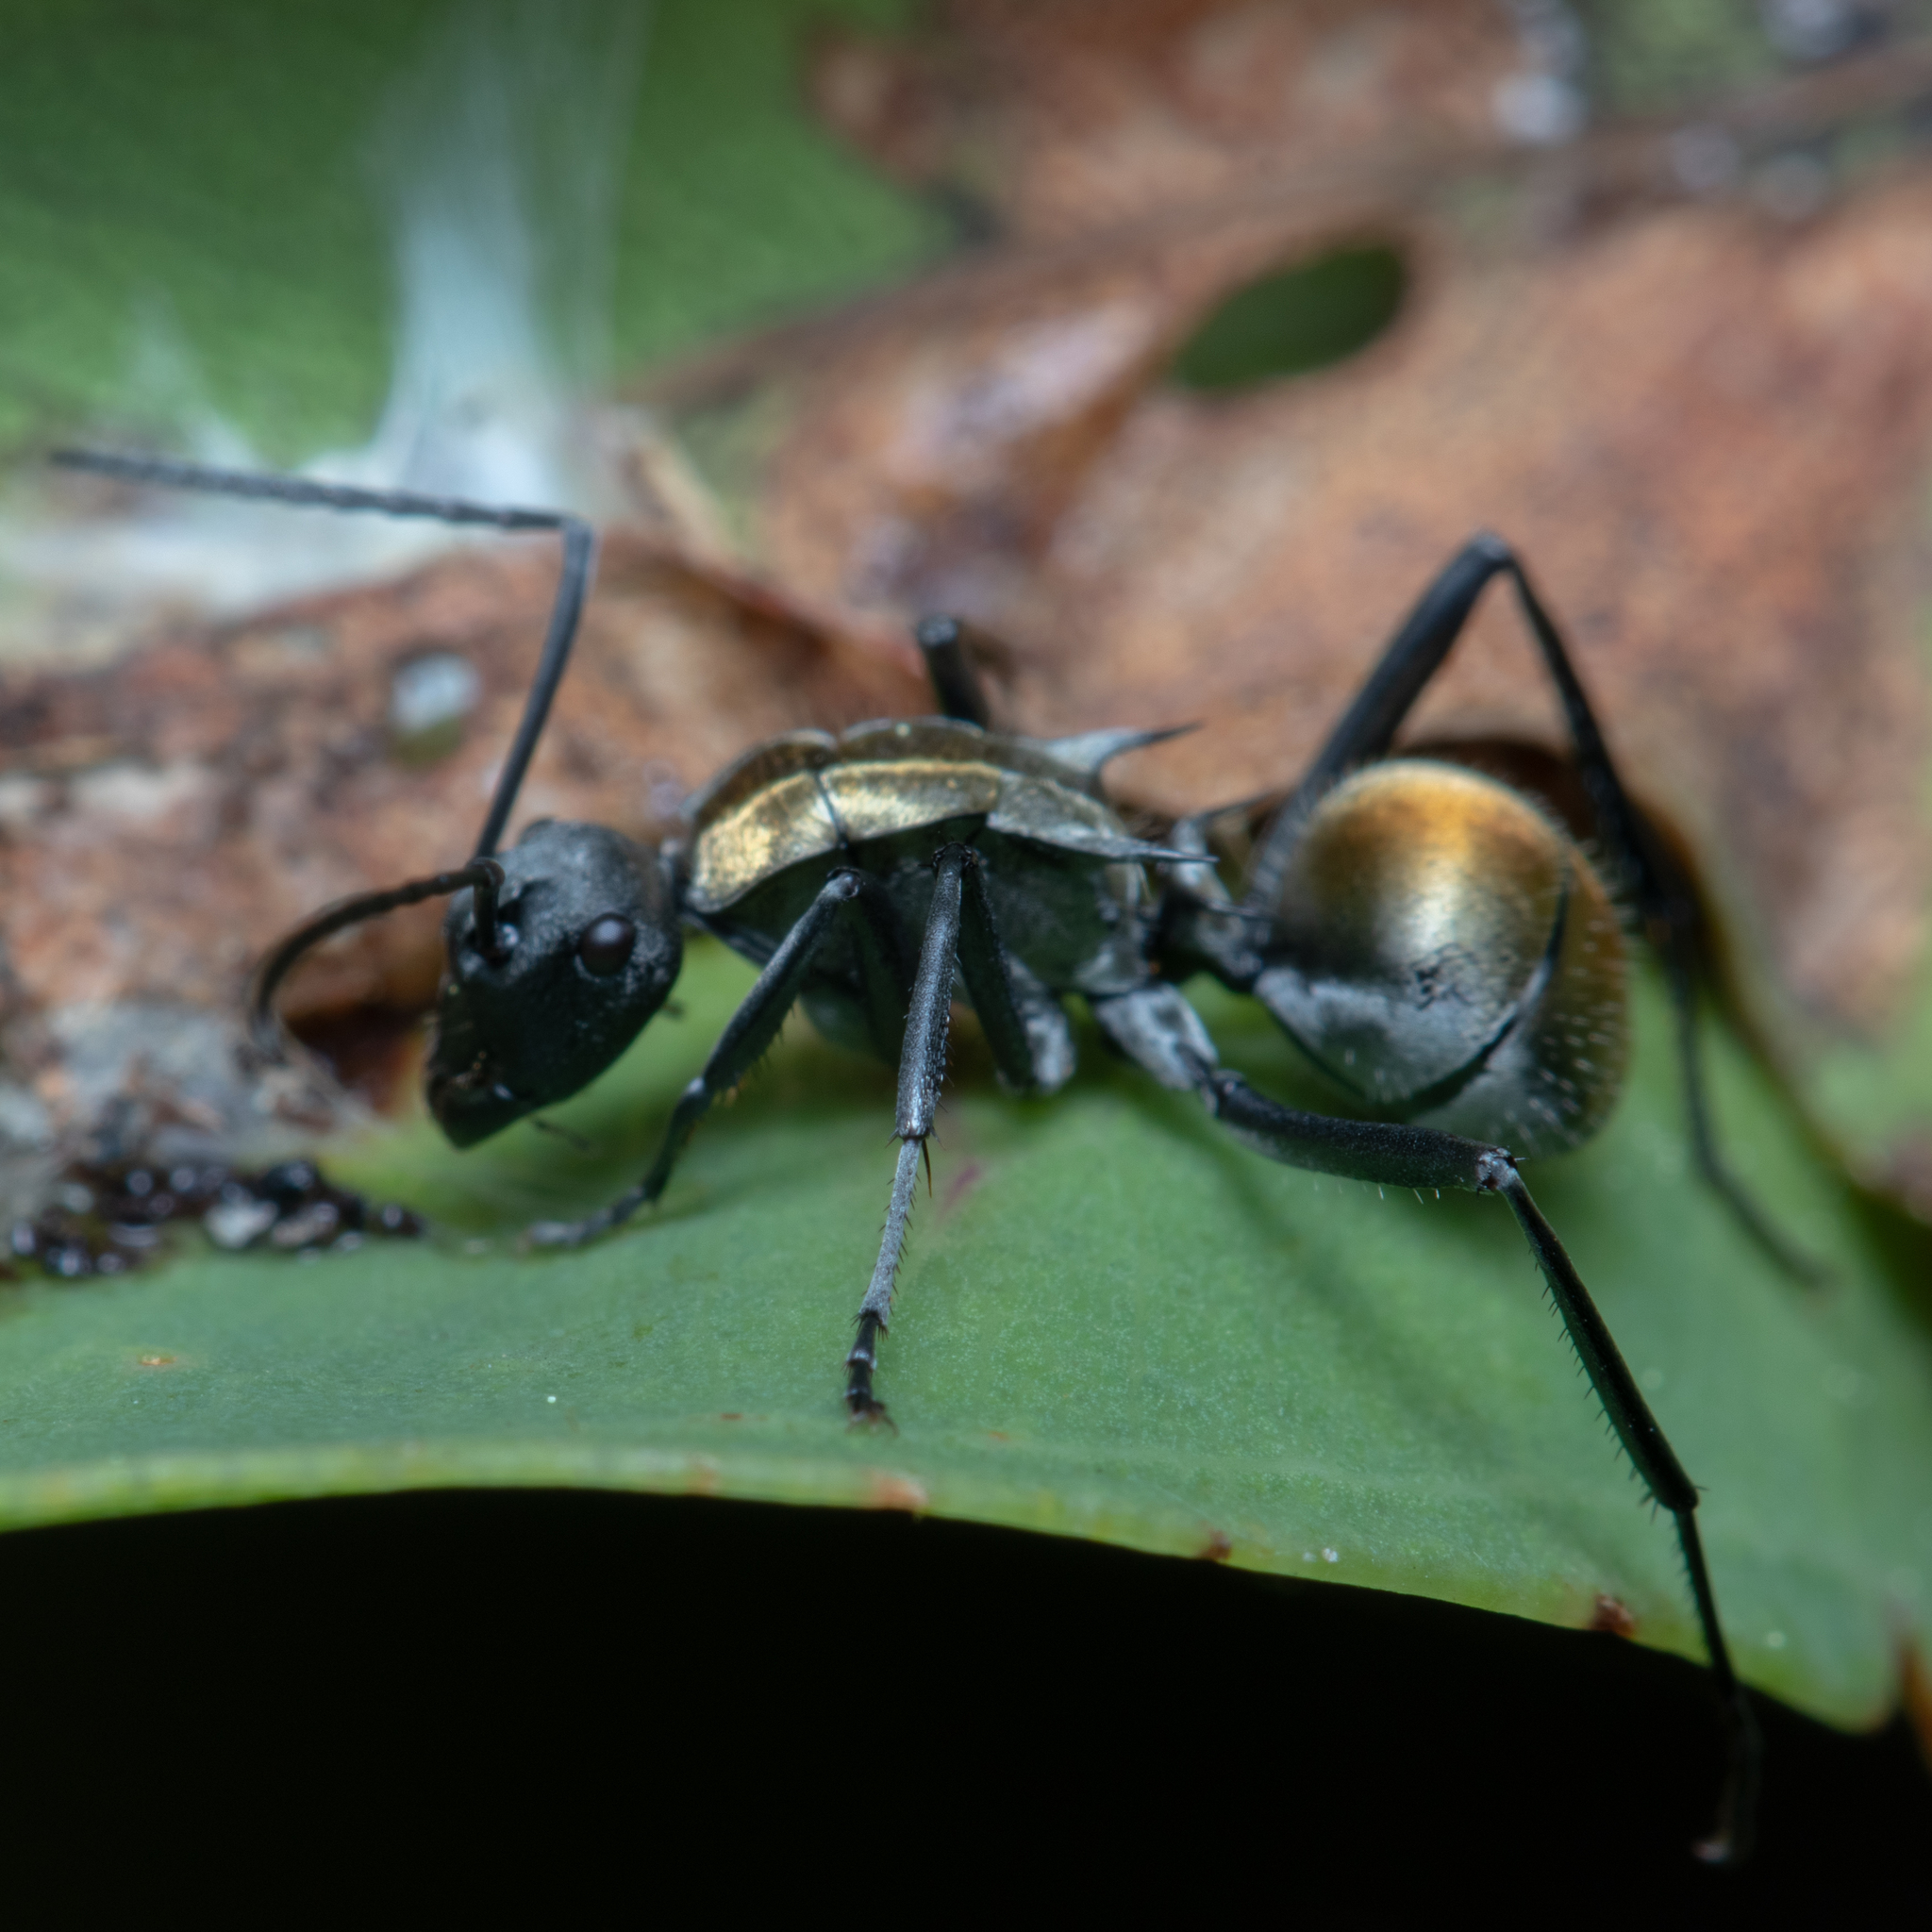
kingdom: Animalia
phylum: Arthropoda
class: Insecta
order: Hymenoptera
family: Formicidae
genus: Polyrhachis
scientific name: Polyrhachis ammon
